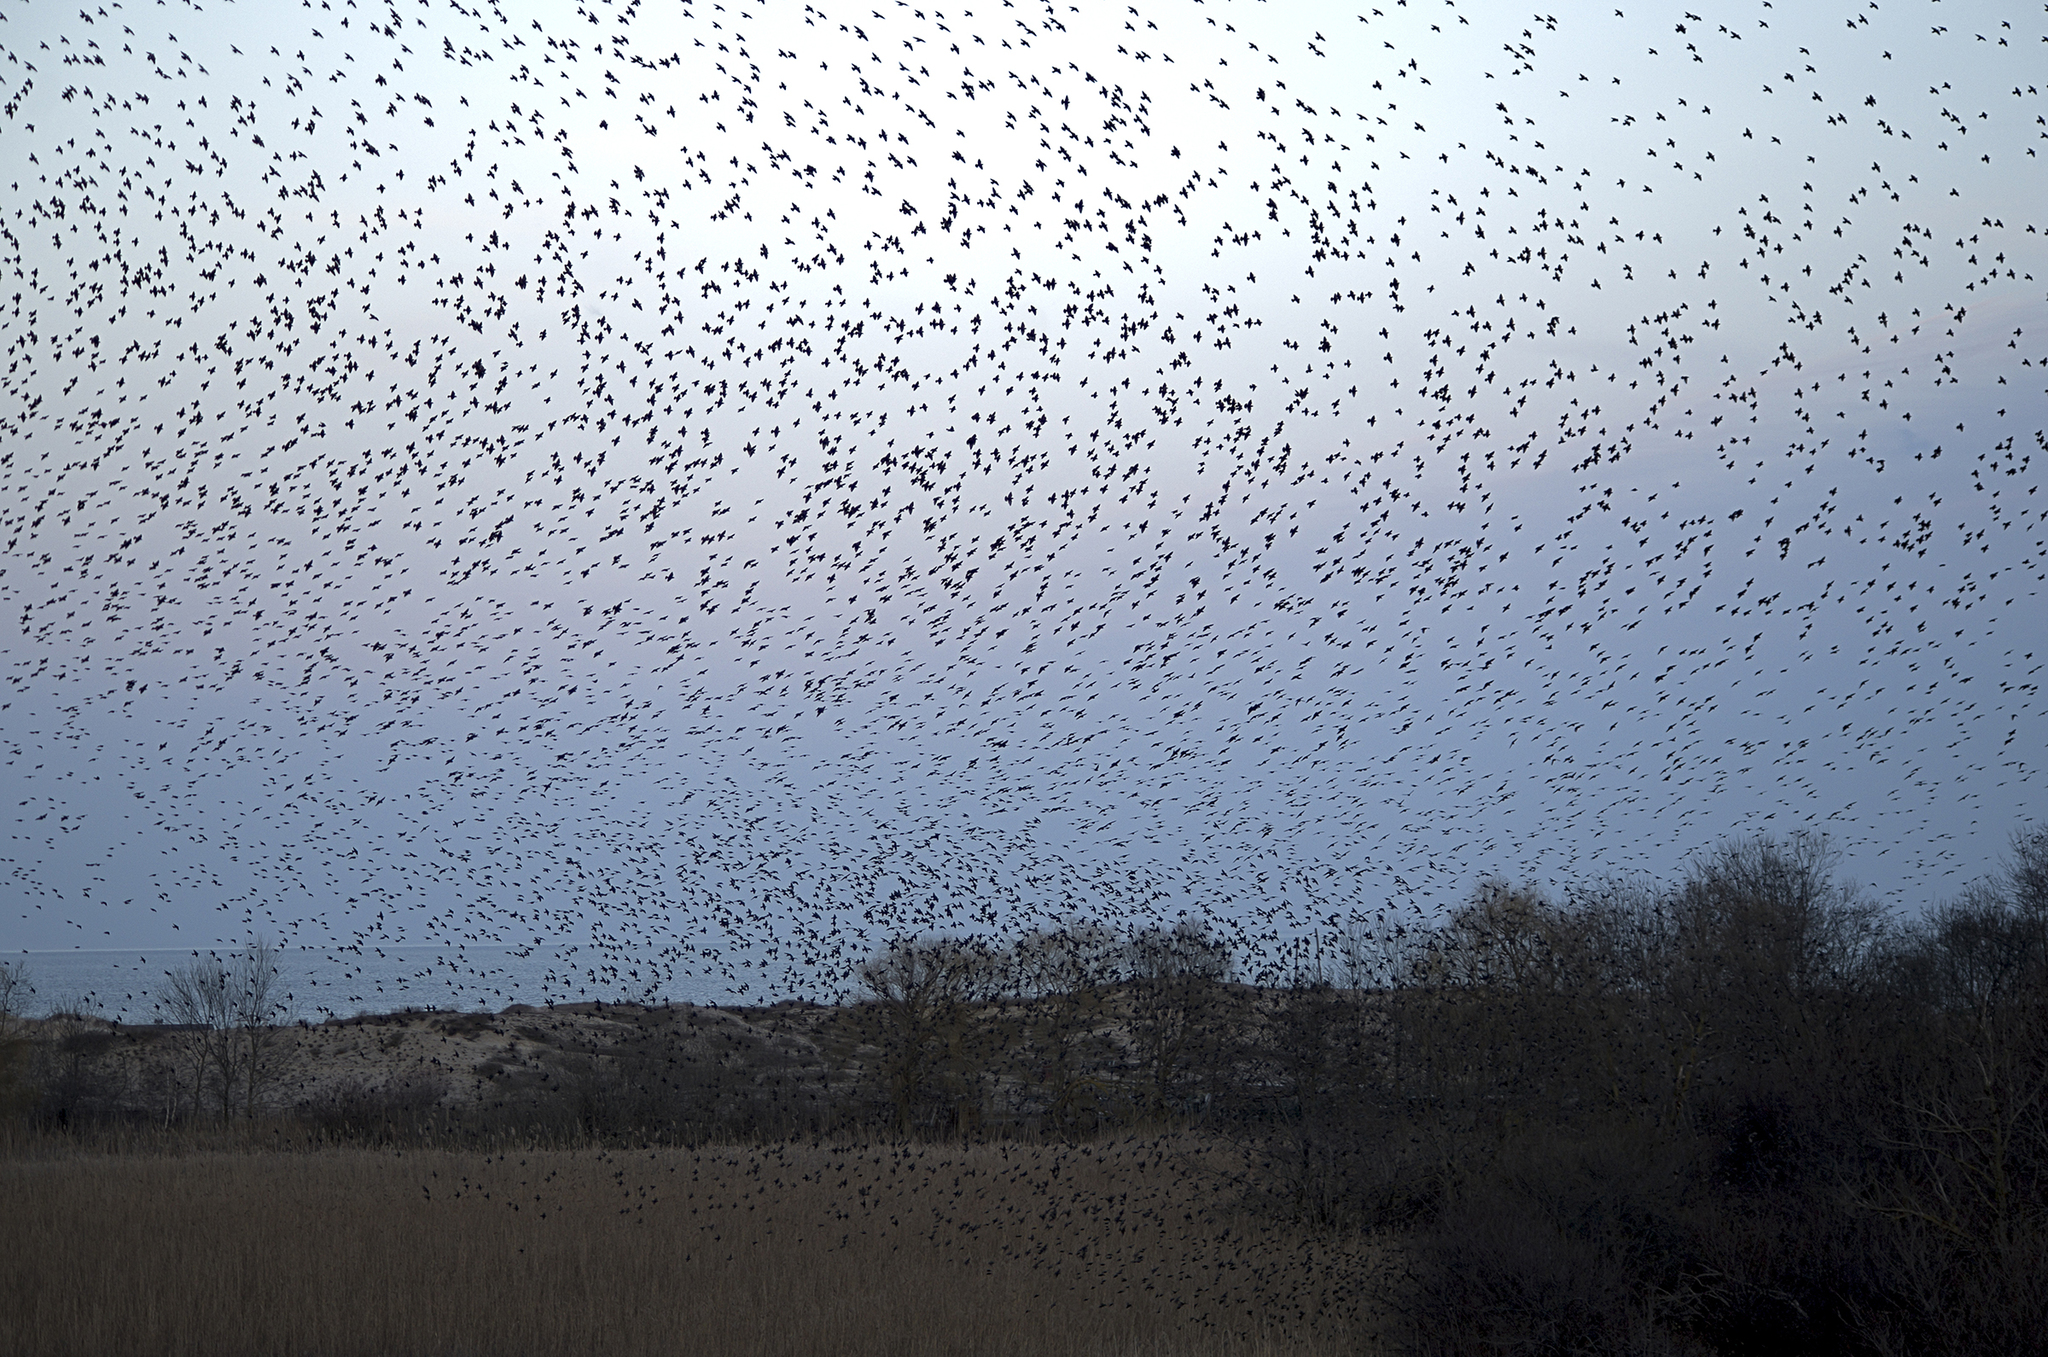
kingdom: Animalia
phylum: Chordata
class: Aves
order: Passeriformes
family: Sturnidae
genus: Sturnus
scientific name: Sturnus vulgaris
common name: Common starling
